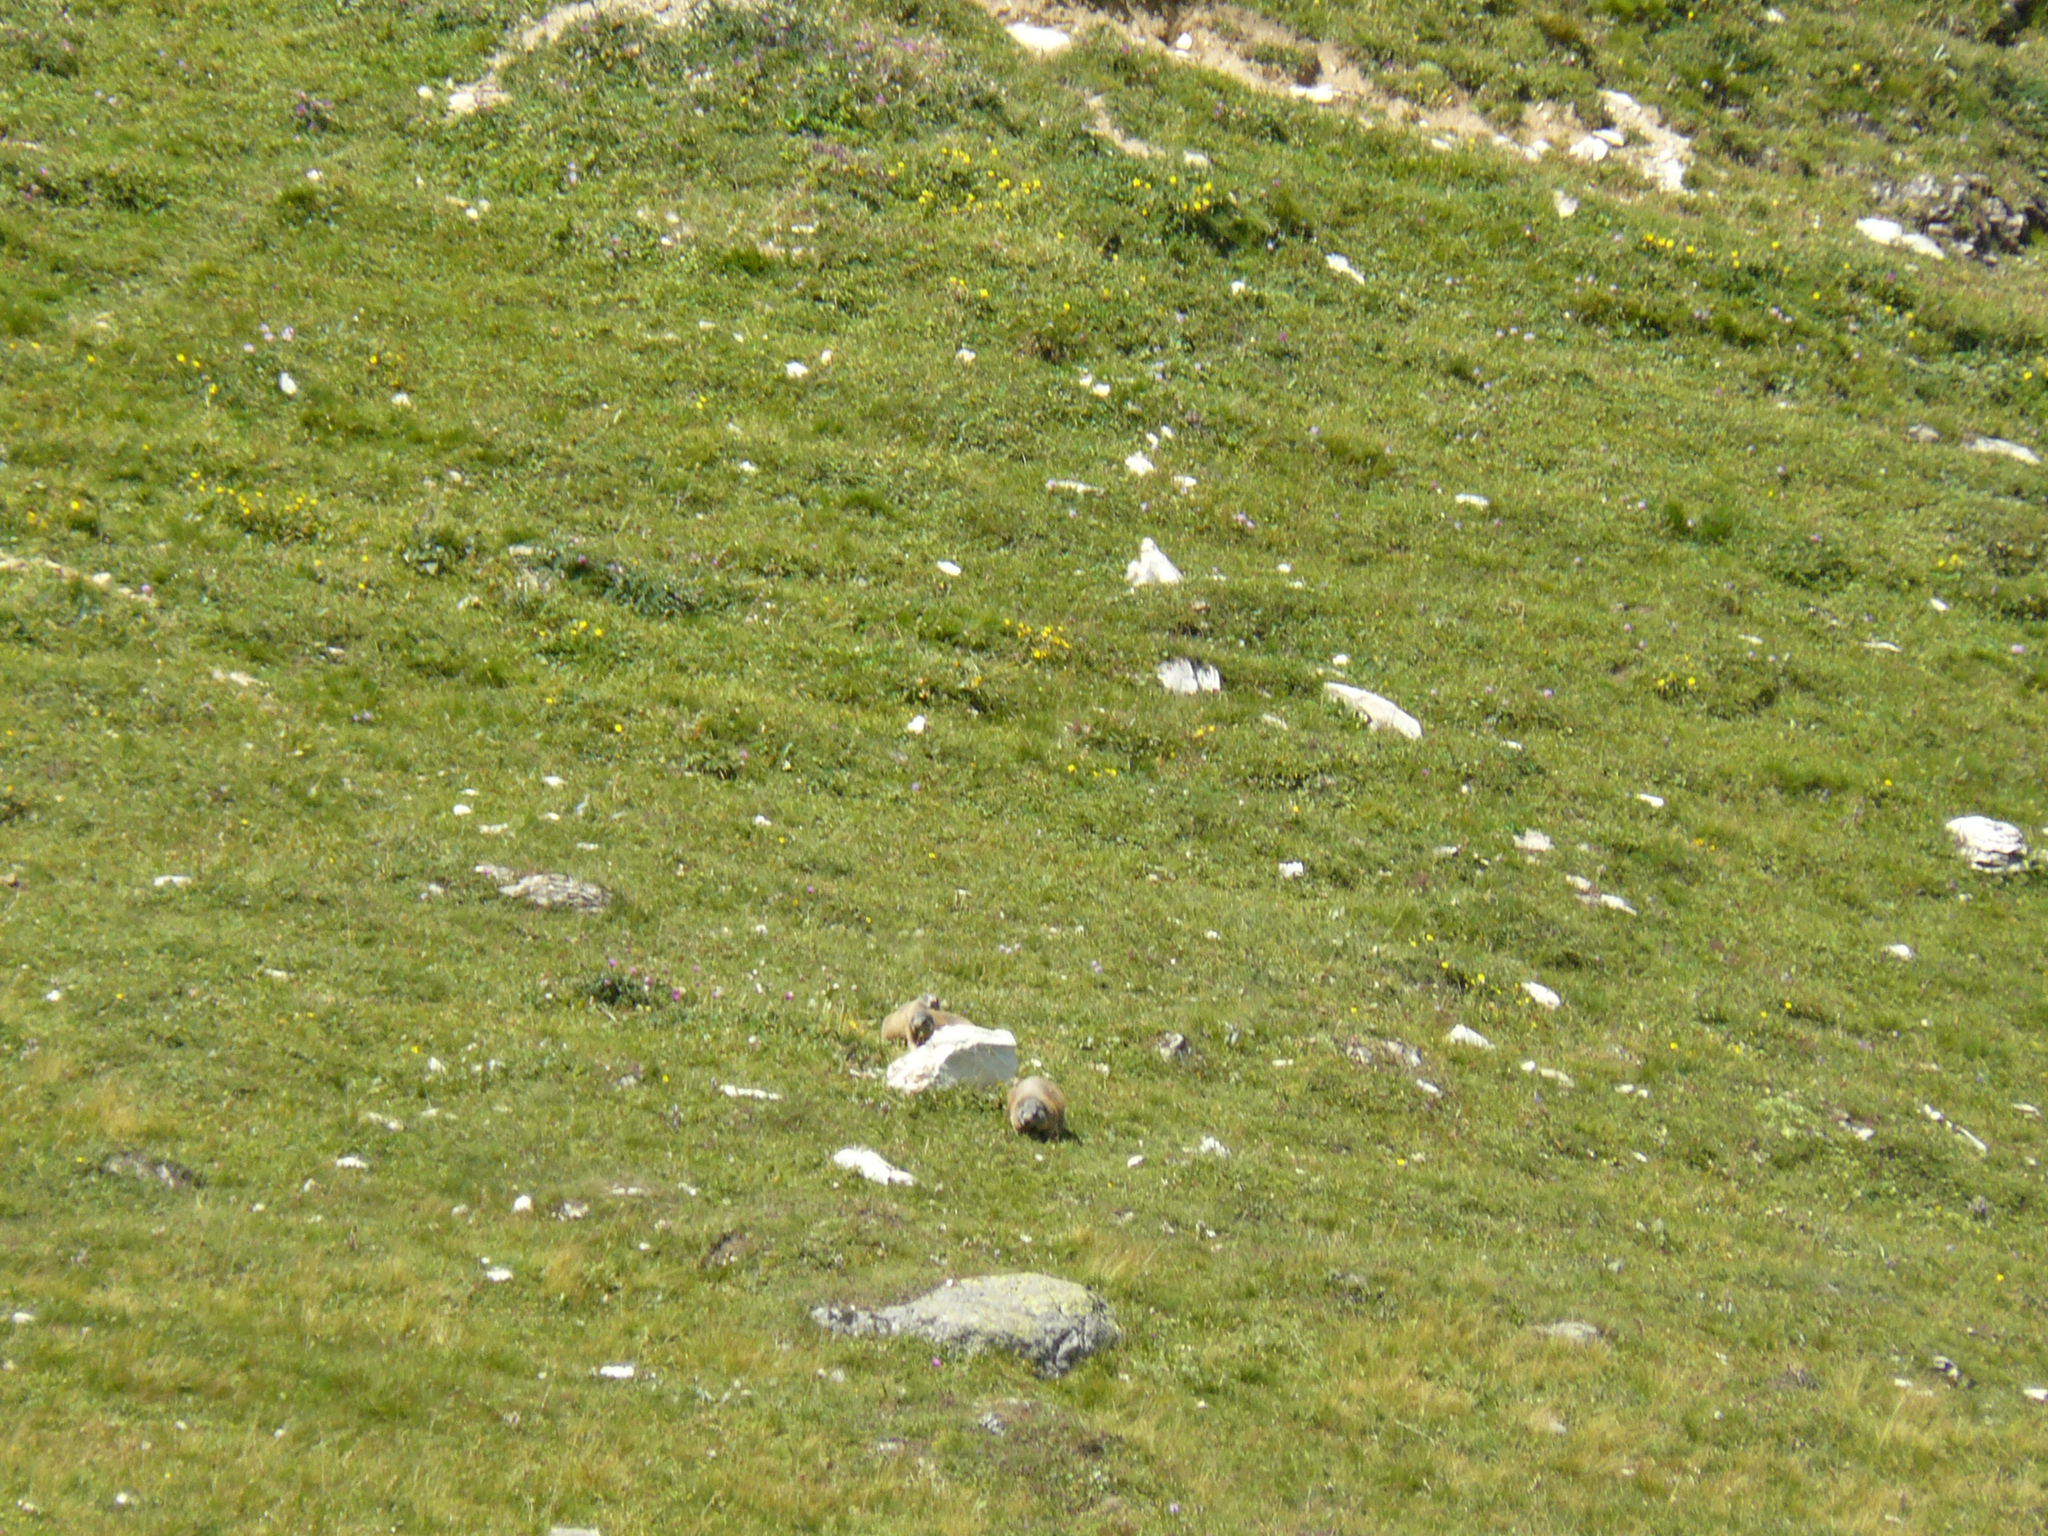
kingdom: Animalia
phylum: Chordata
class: Mammalia
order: Rodentia
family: Sciuridae
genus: Marmota
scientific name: Marmota marmota
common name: Alpine marmot
